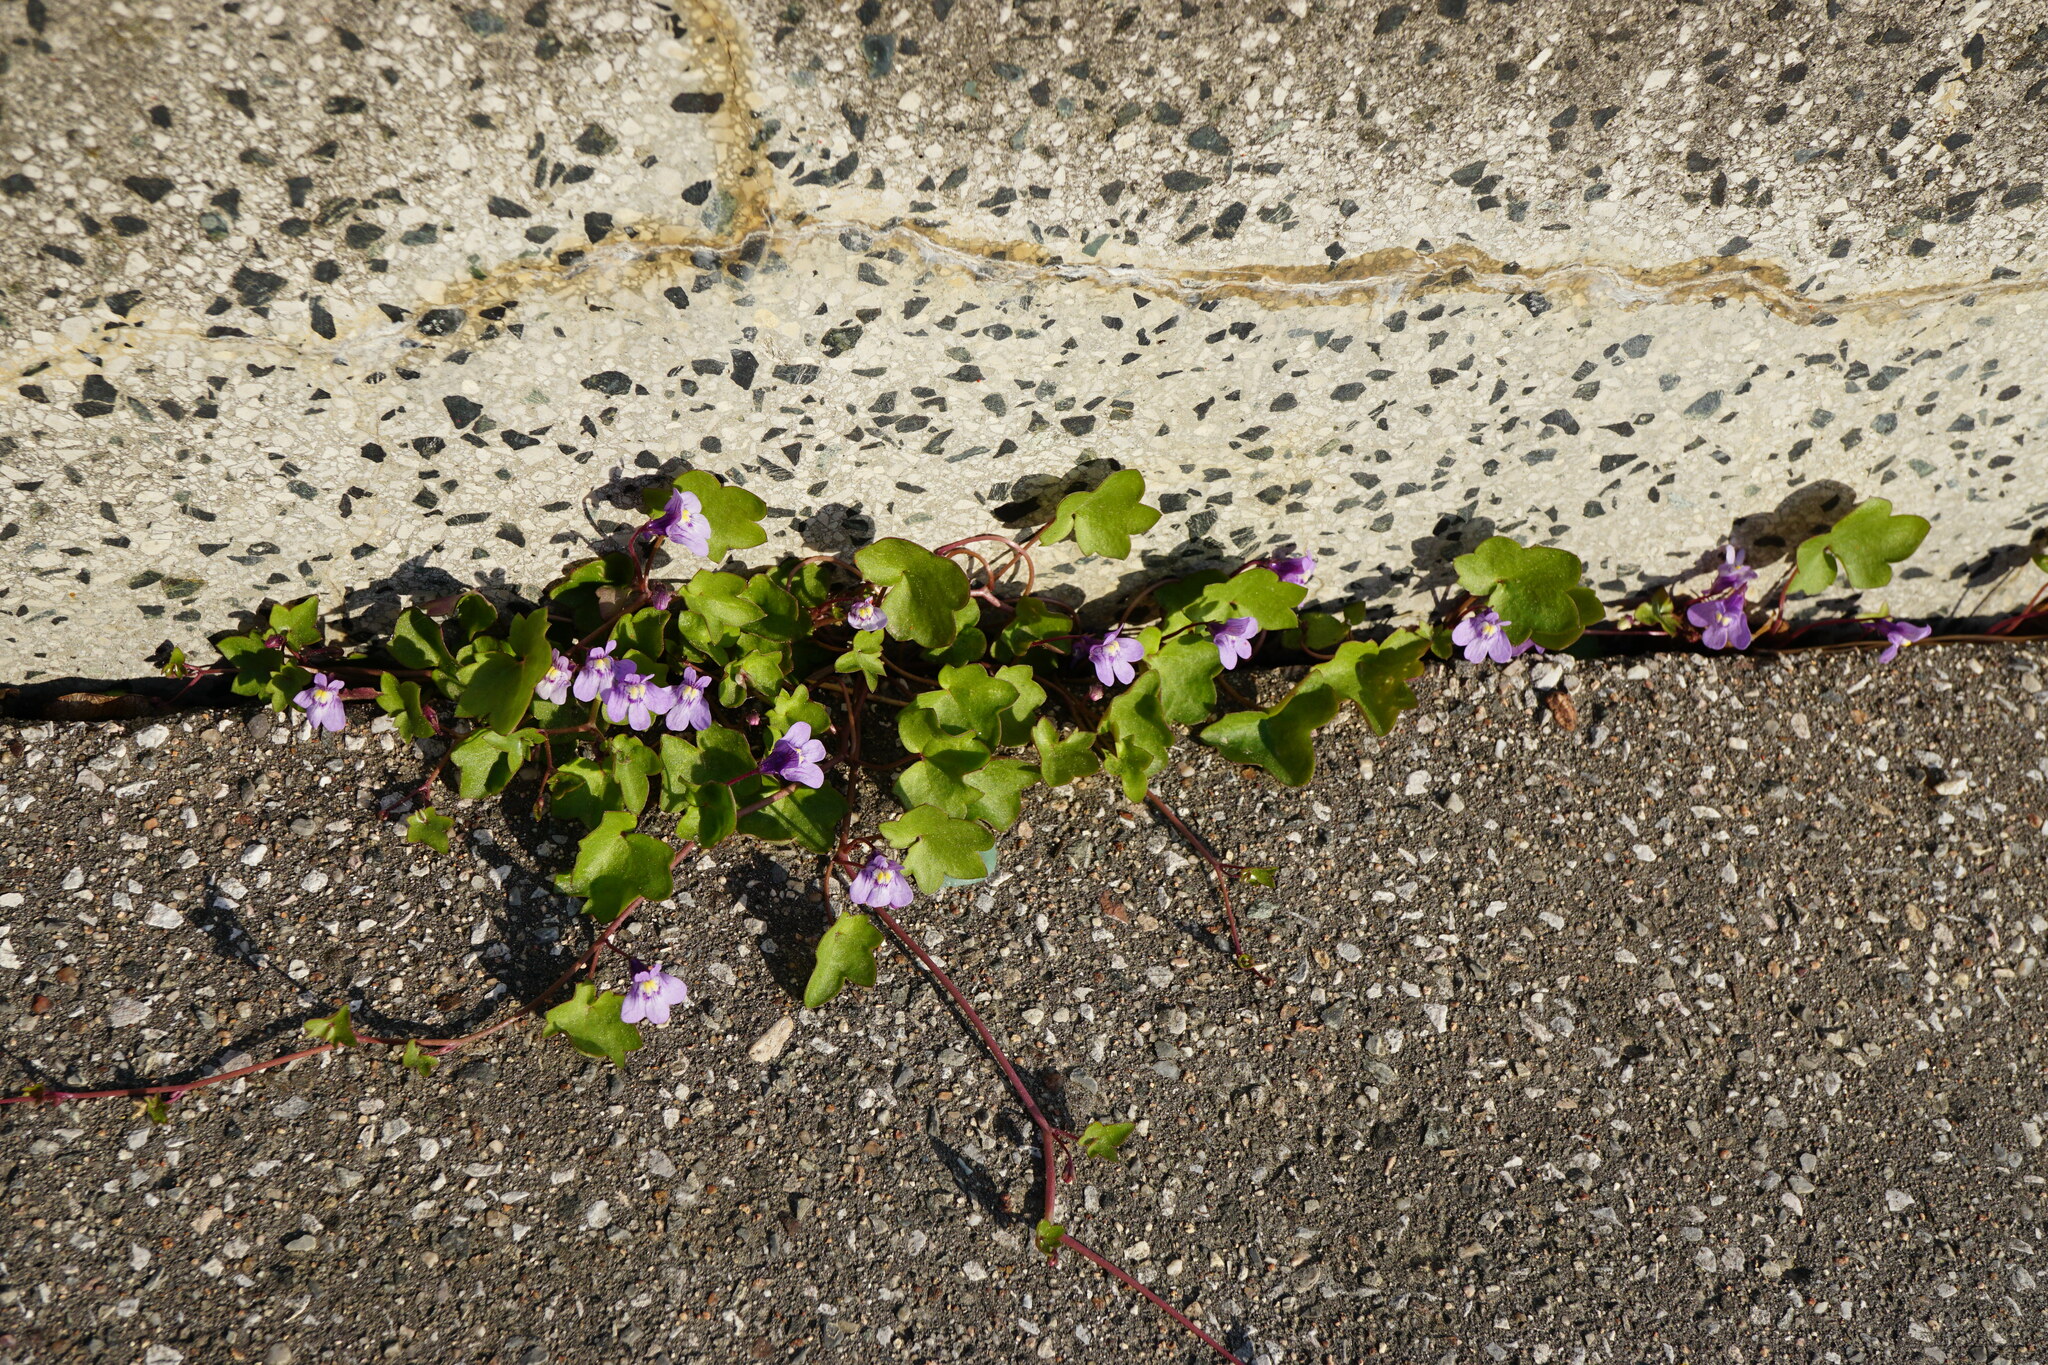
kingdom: Plantae
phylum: Tracheophyta
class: Magnoliopsida
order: Lamiales
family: Plantaginaceae
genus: Cymbalaria
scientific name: Cymbalaria muralis
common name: Ivy-leaved toadflax
